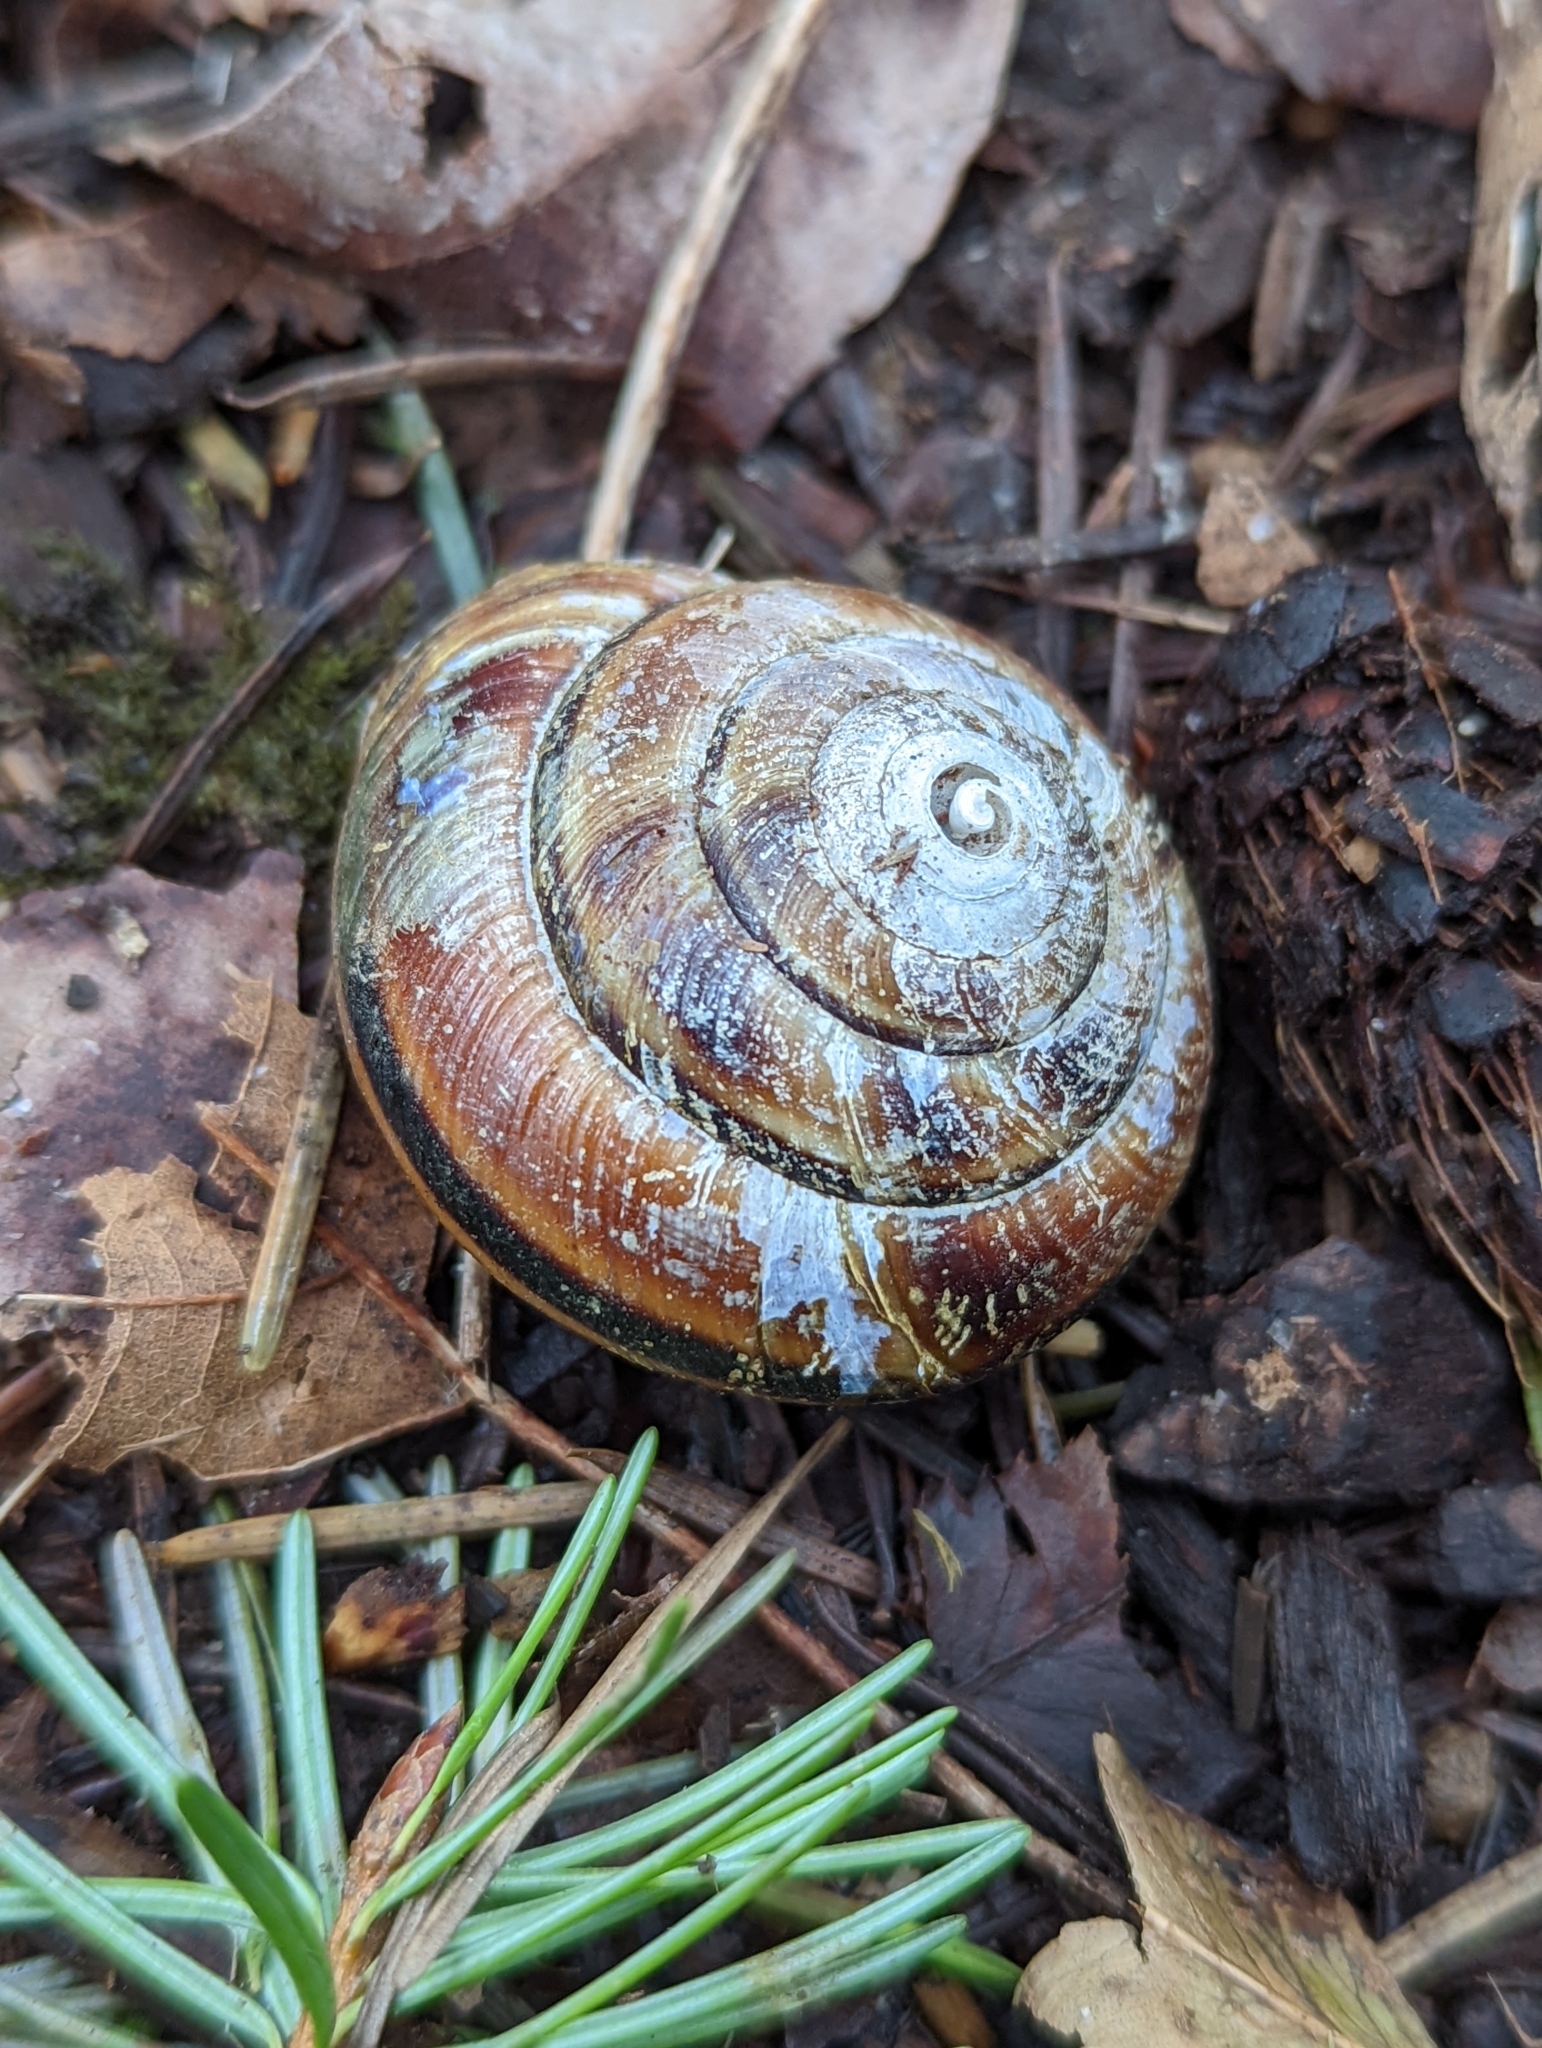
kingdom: Animalia
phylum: Mollusca
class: Gastropoda
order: Stylommatophora
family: Xanthonychidae
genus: Monadenia
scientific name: Monadenia fidelis
